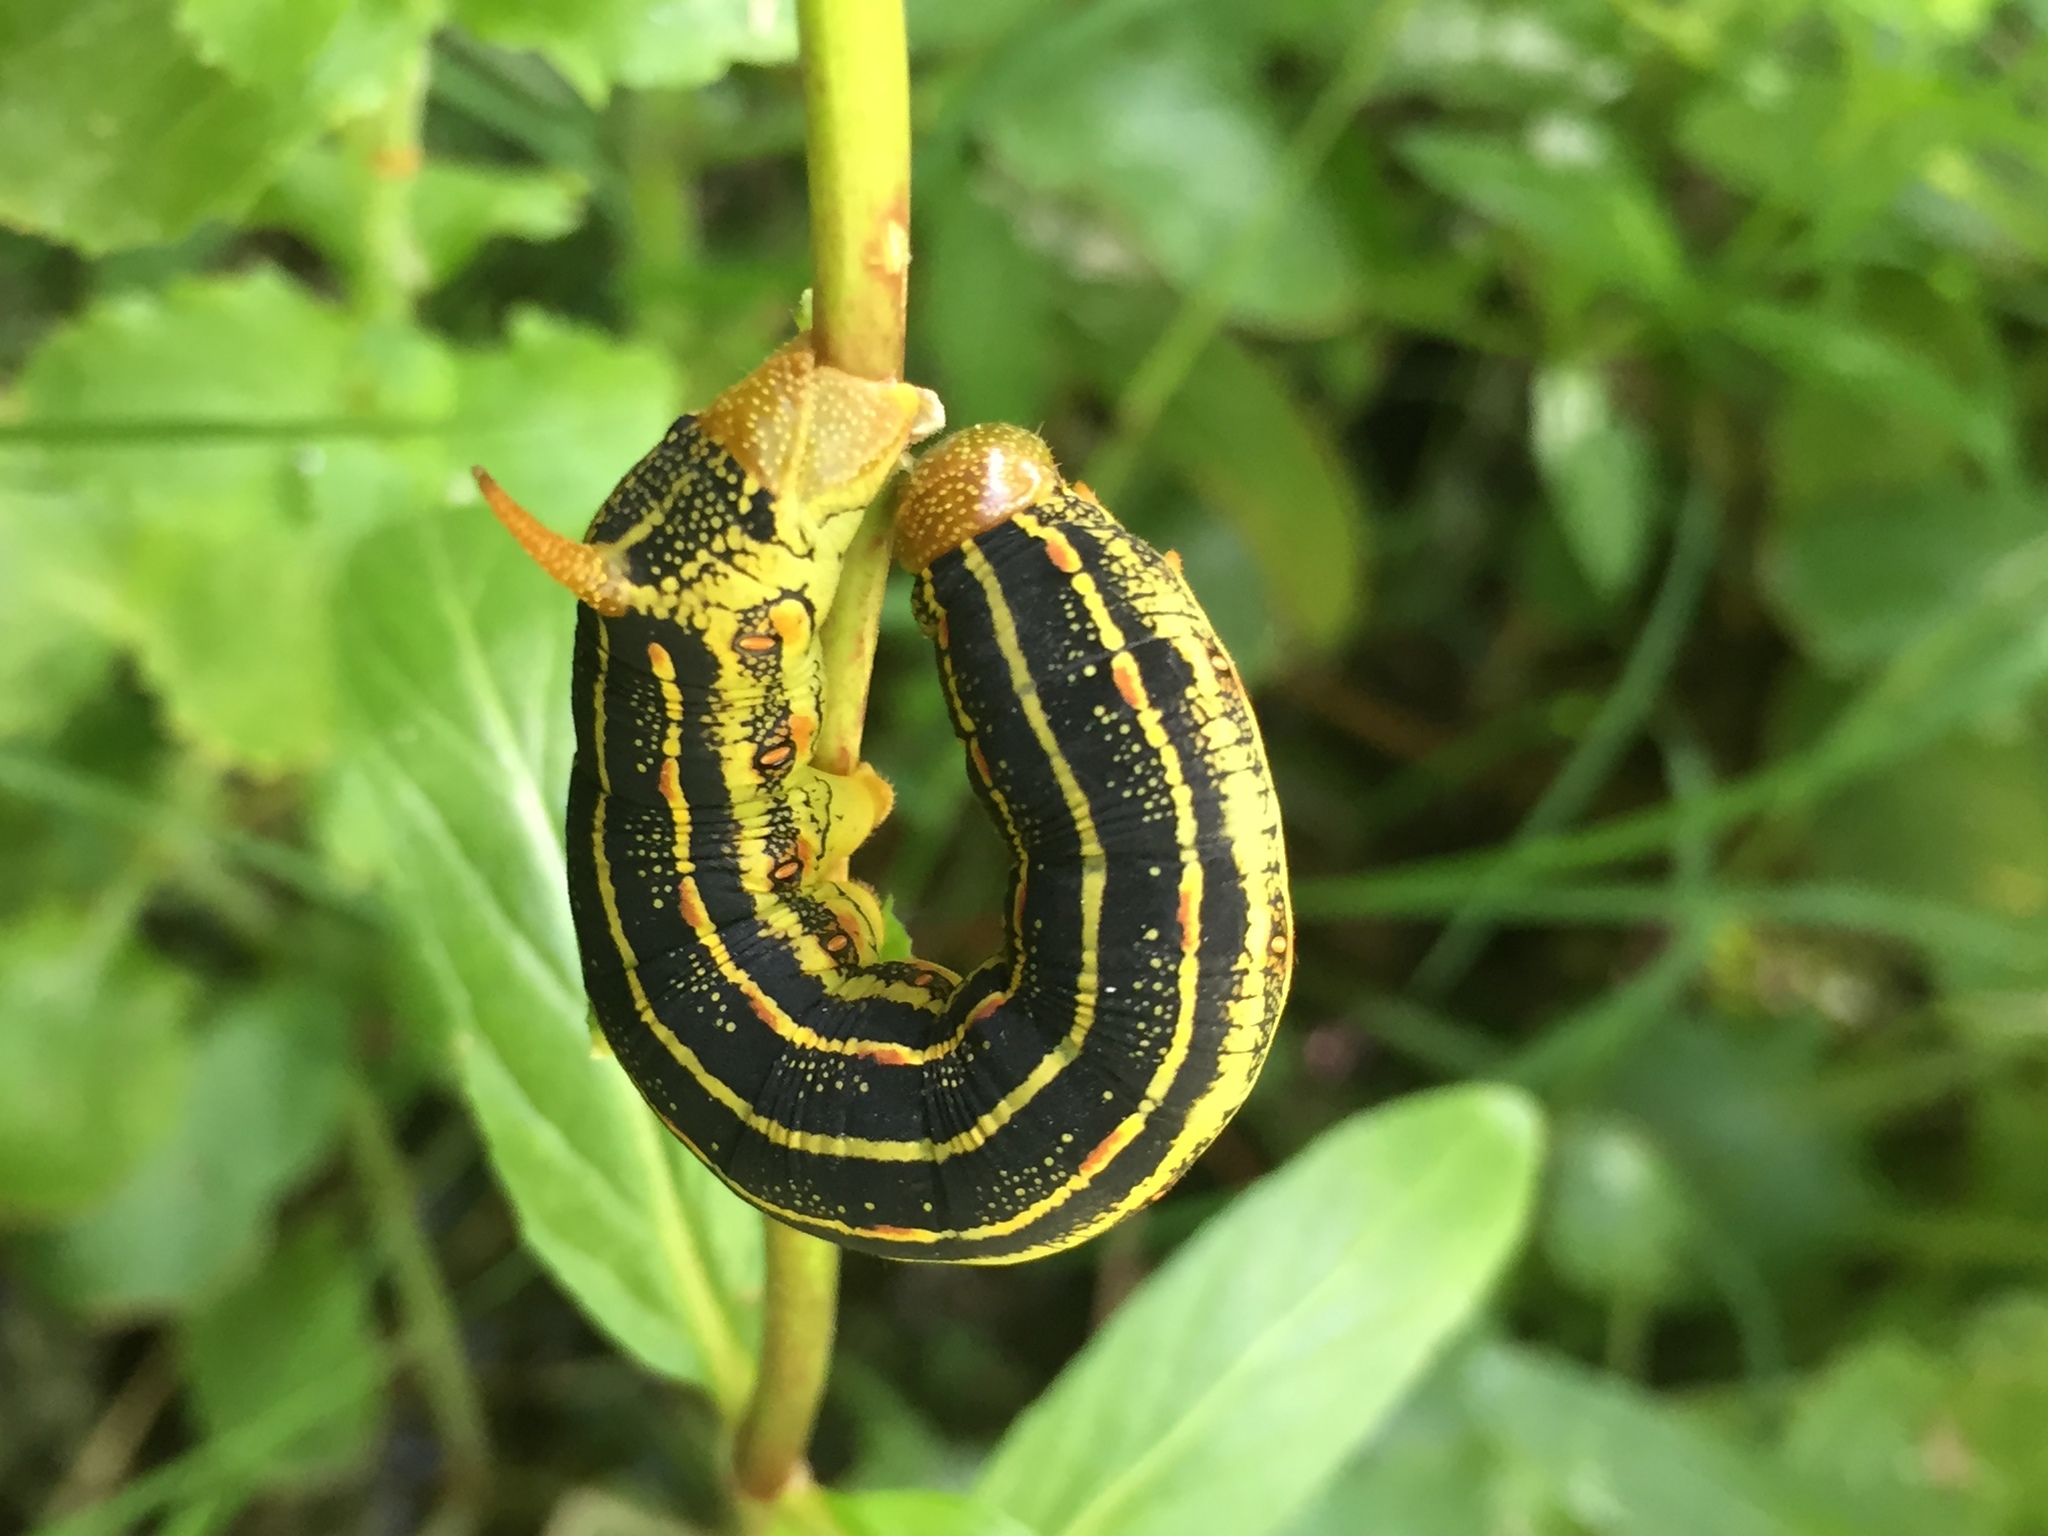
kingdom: Animalia
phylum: Arthropoda
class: Insecta
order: Lepidoptera
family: Sphingidae
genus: Hyles
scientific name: Hyles lineata
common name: White-lined sphinx
